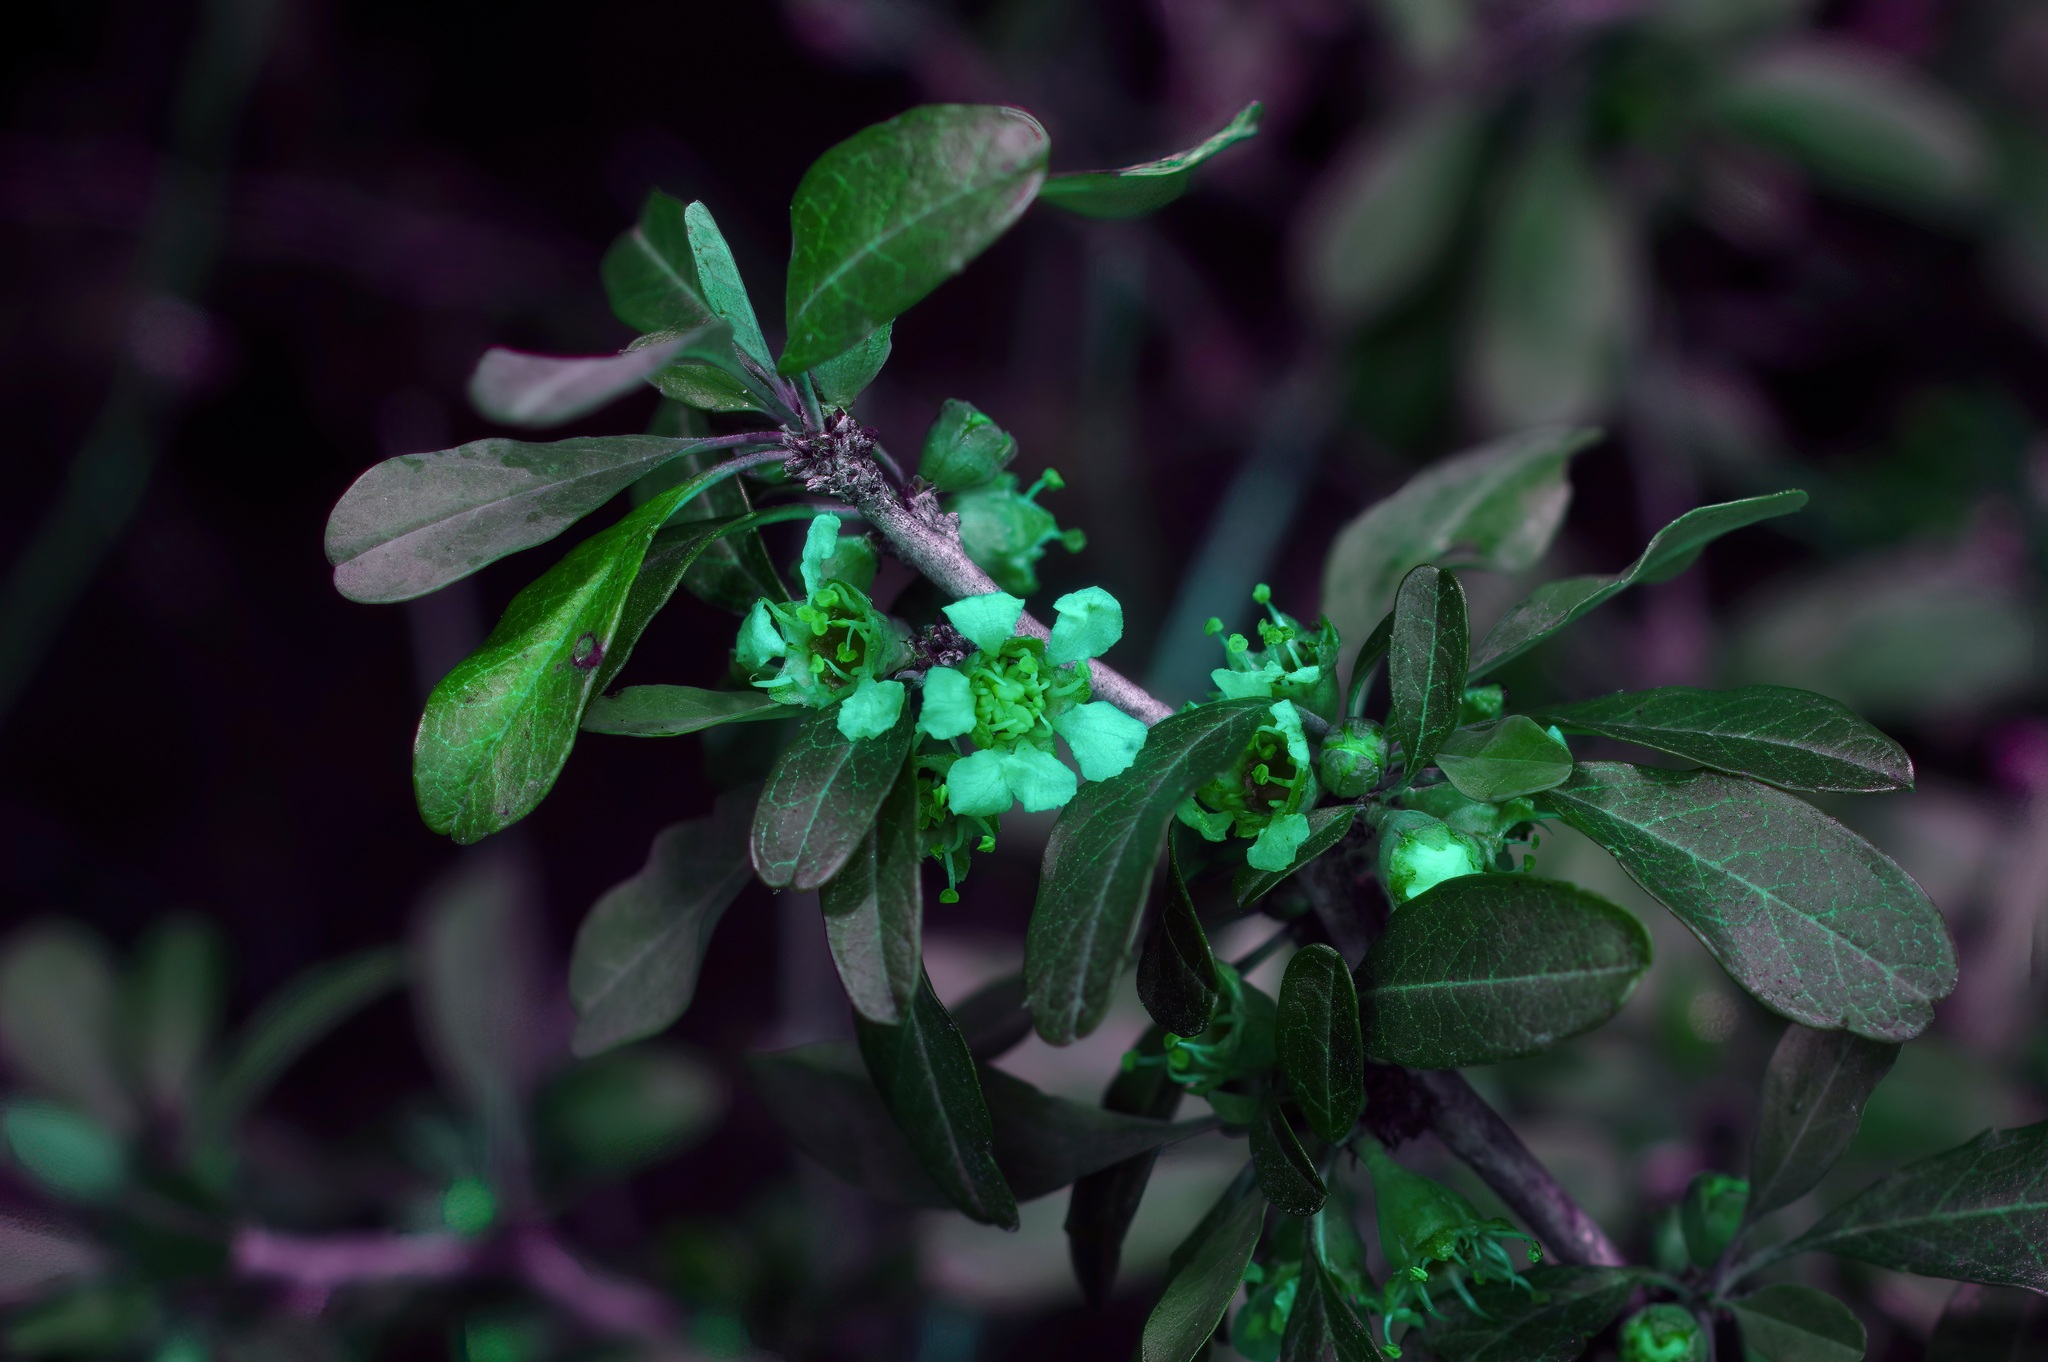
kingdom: Plantae
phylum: Tracheophyta
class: Magnoliopsida
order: Rosales
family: Rosaceae
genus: Prunus
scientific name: Prunus minutiflora
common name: Texas almond
